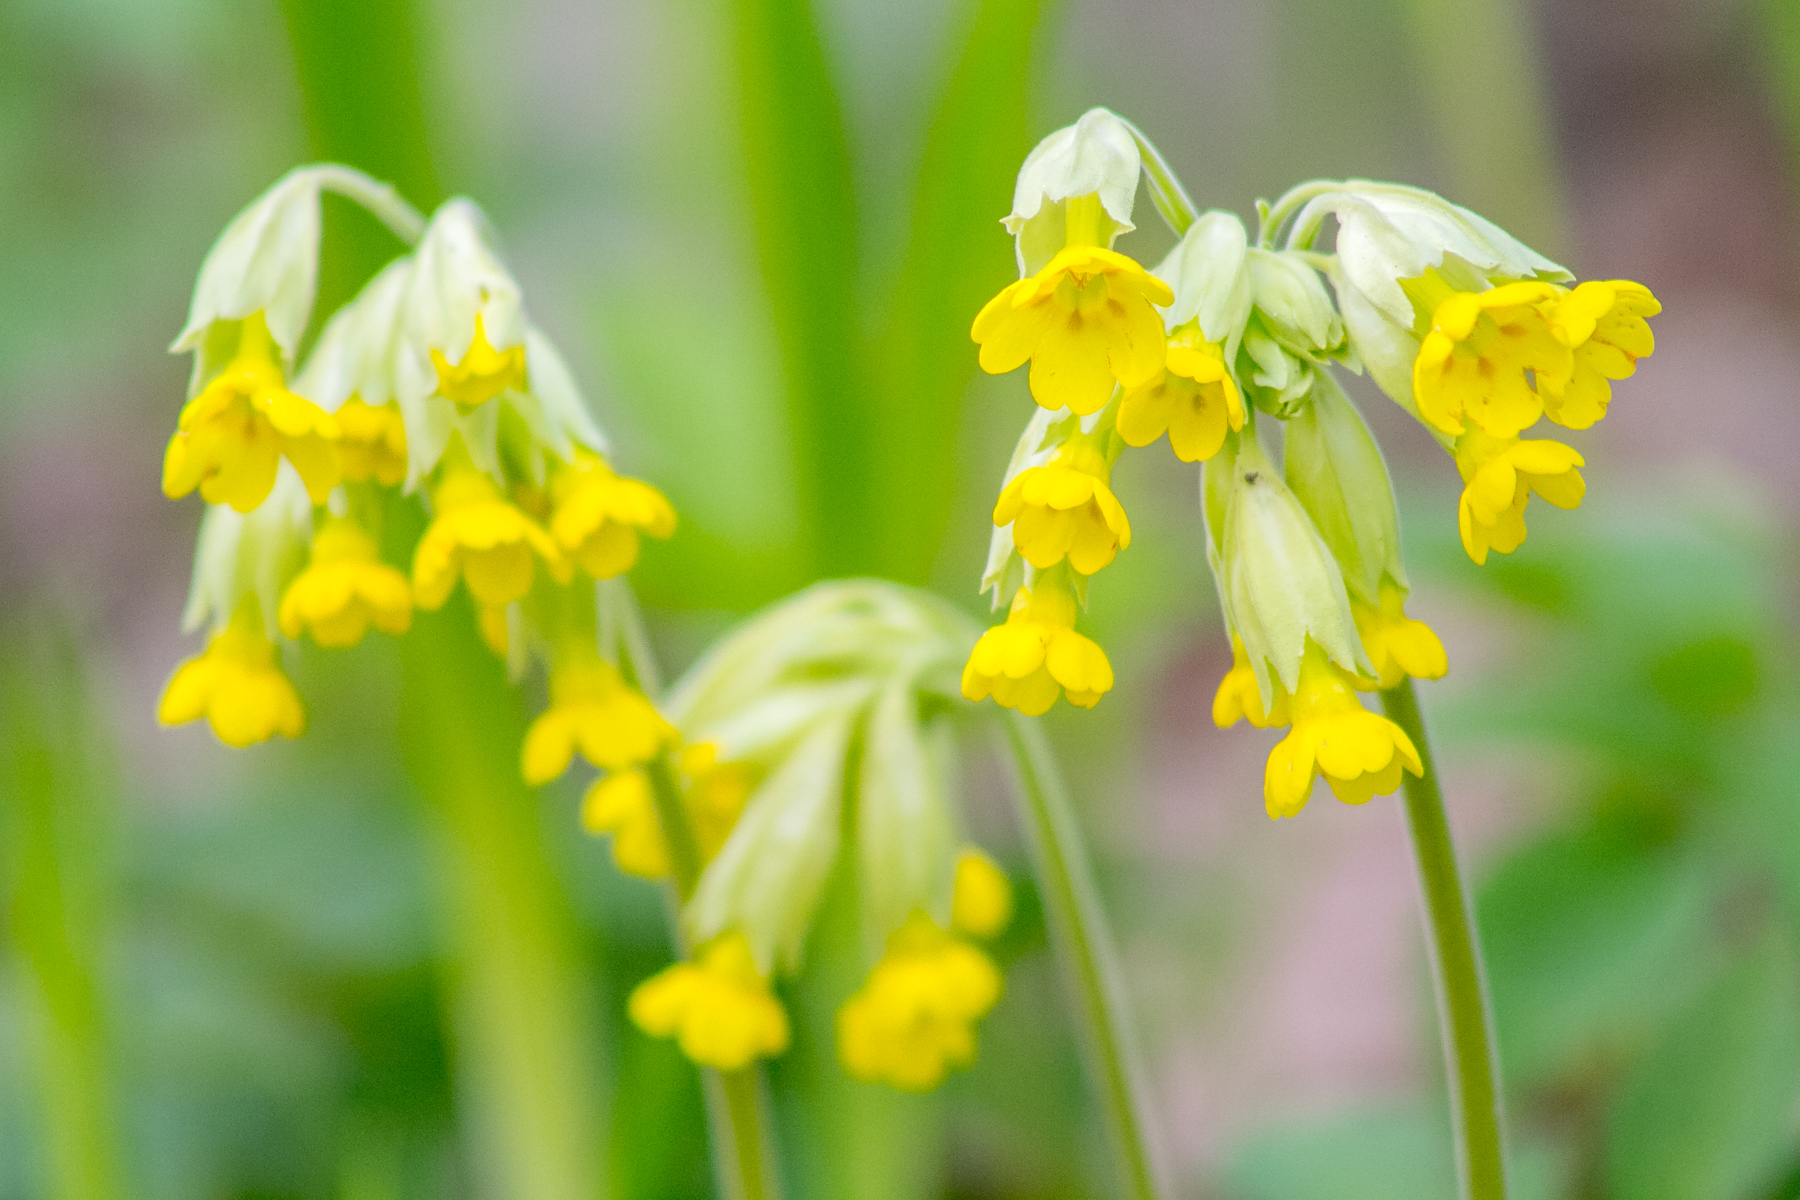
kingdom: Plantae
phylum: Tracheophyta
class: Magnoliopsida
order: Ericales
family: Primulaceae
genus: Primula
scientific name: Primula veris
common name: Cowslip
